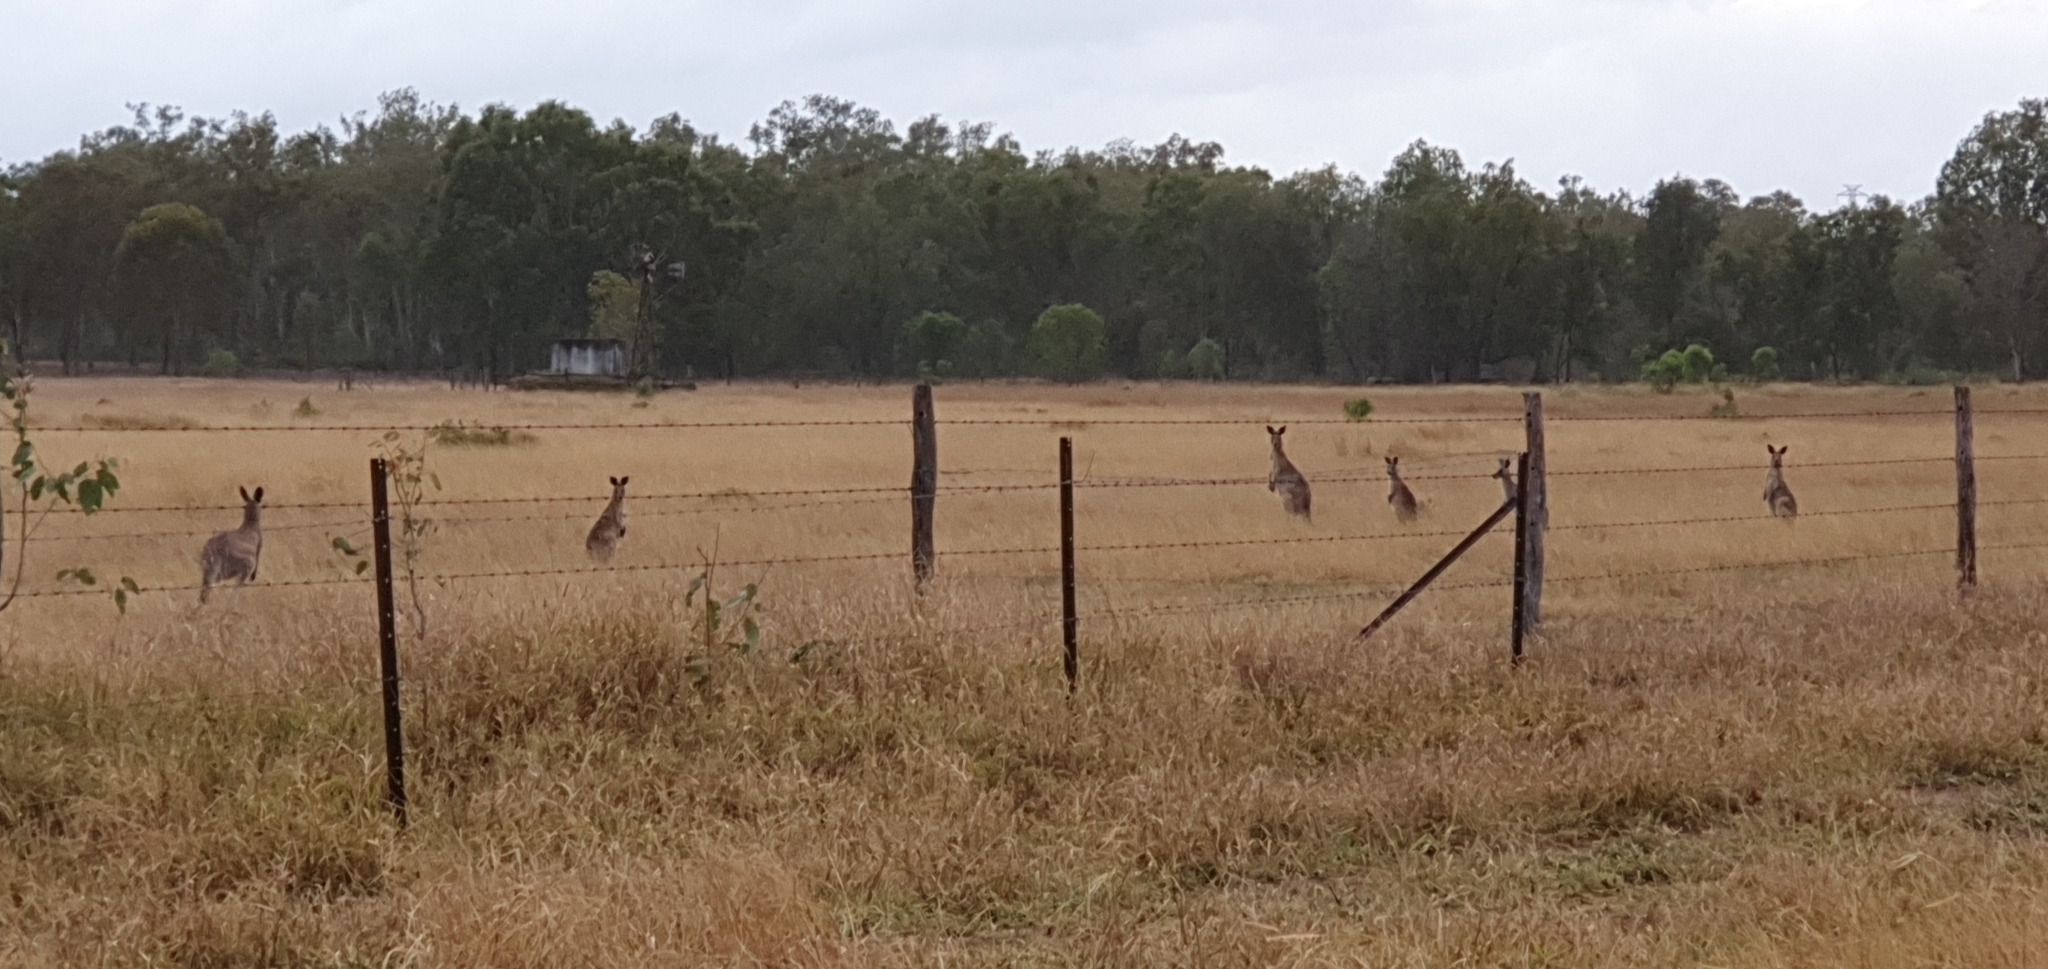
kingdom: Animalia
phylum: Chordata
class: Mammalia
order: Diprotodontia
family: Macropodidae
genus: Macropus
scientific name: Macropus giganteus
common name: Eastern grey kangaroo
